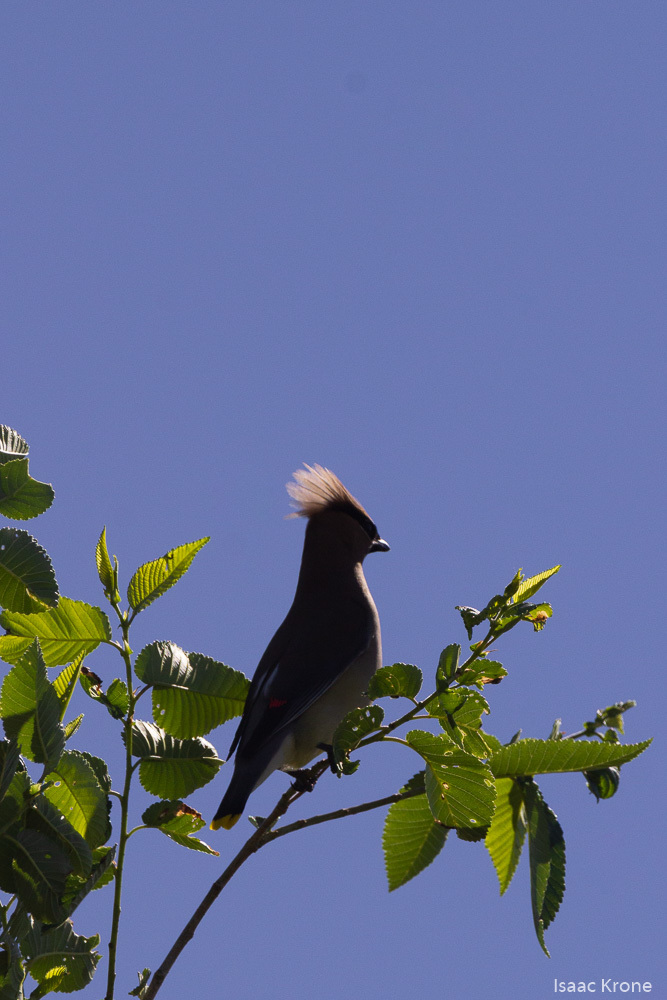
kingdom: Animalia
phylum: Chordata
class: Aves
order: Passeriformes
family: Bombycillidae
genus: Bombycilla
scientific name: Bombycilla cedrorum
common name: Cedar waxwing
